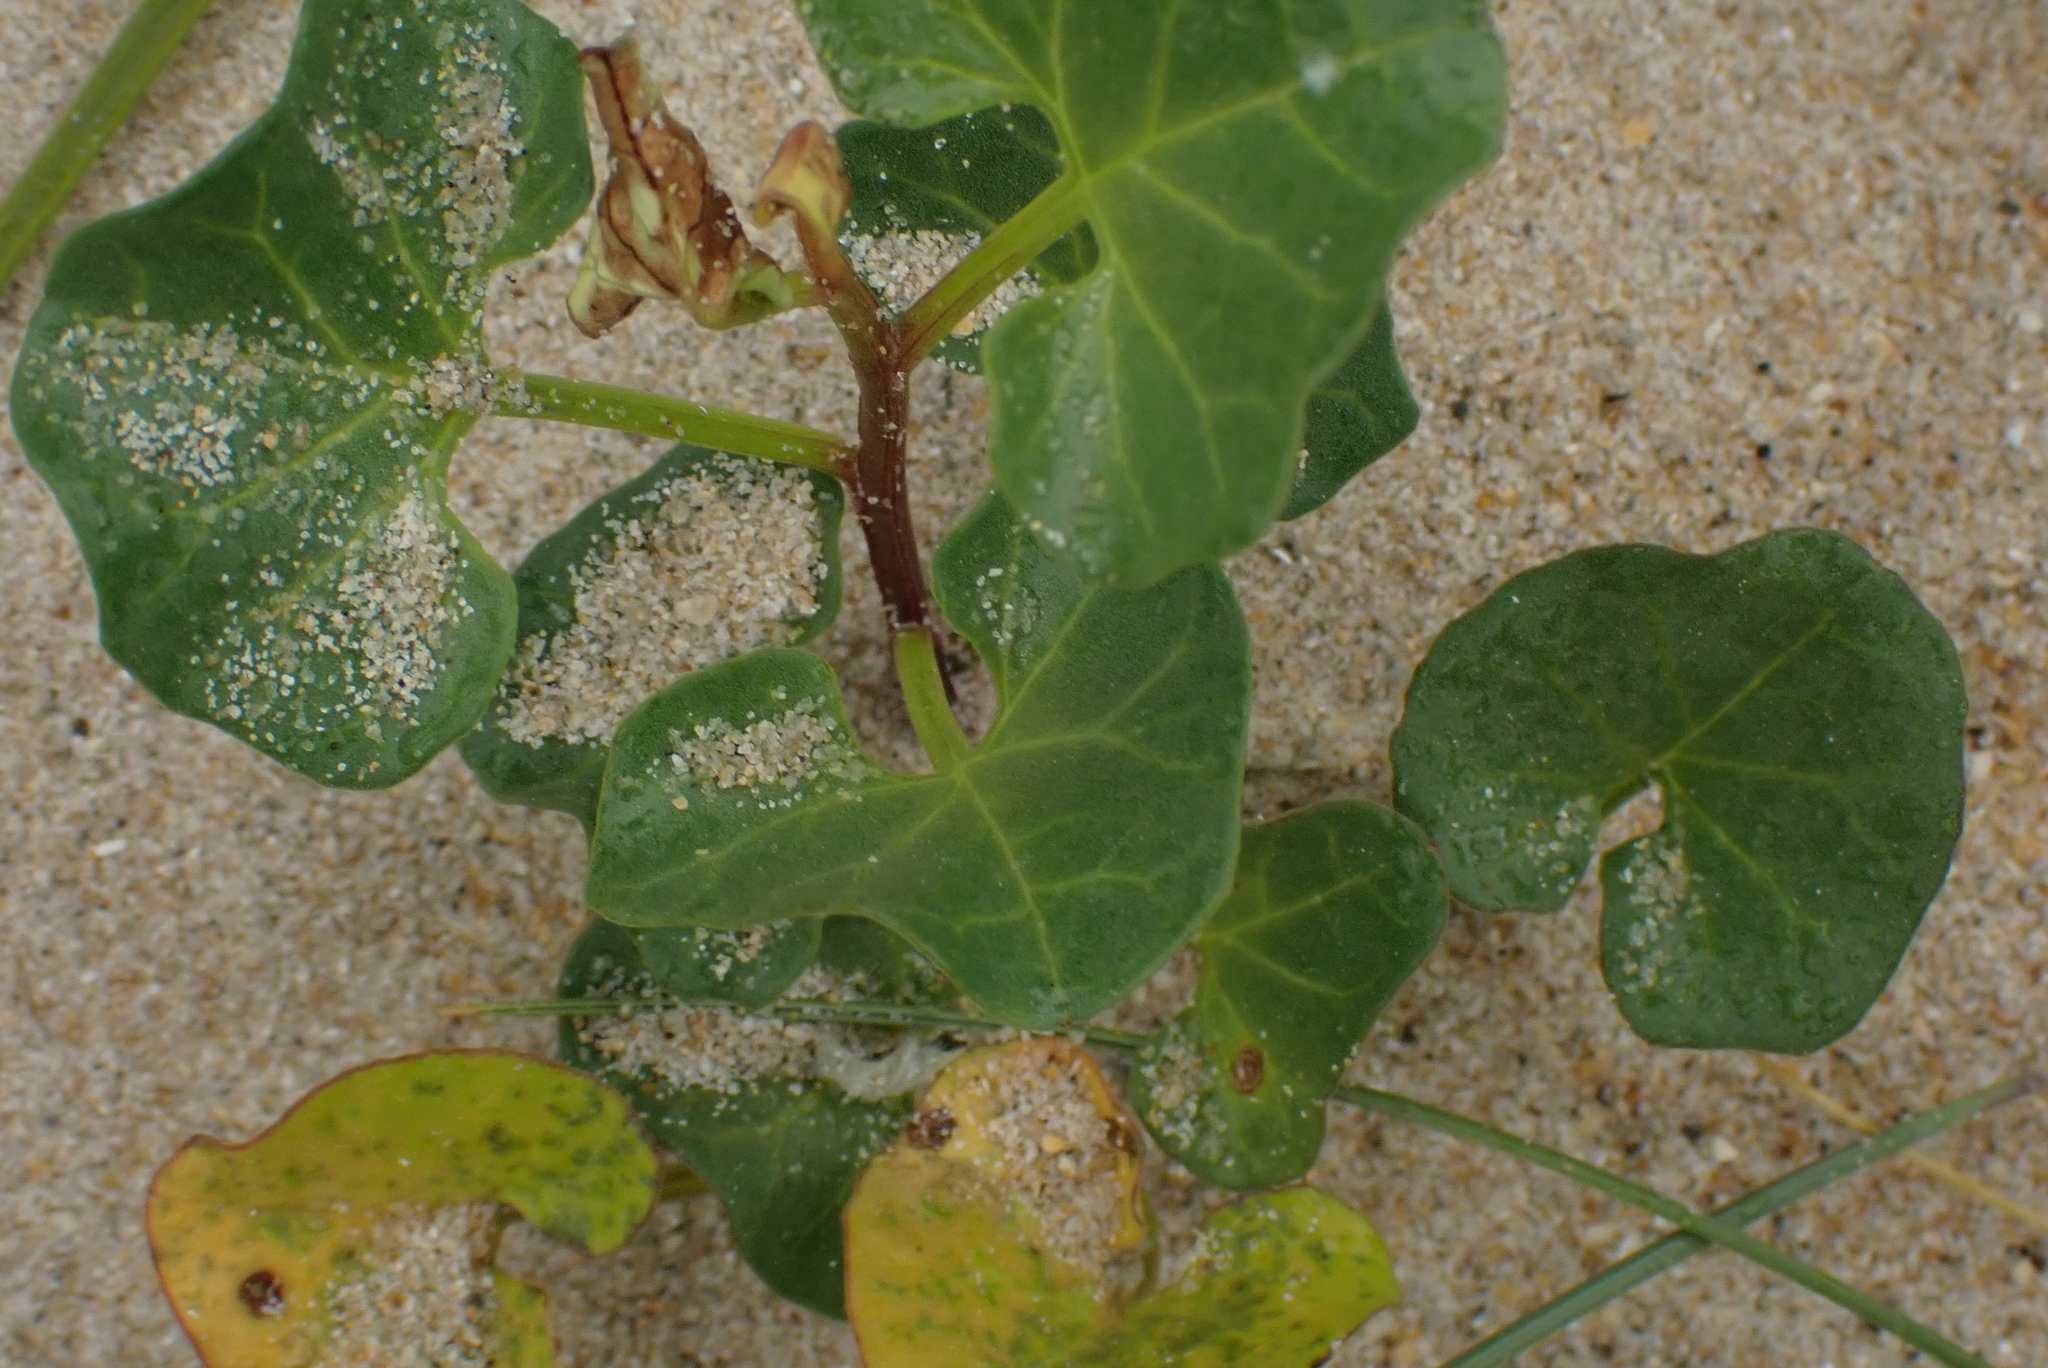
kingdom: Plantae
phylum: Tracheophyta
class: Magnoliopsida
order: Solanales
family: Convolvulaceae
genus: Calystegia
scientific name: Calystegia soldanella
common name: Sea bindweed
